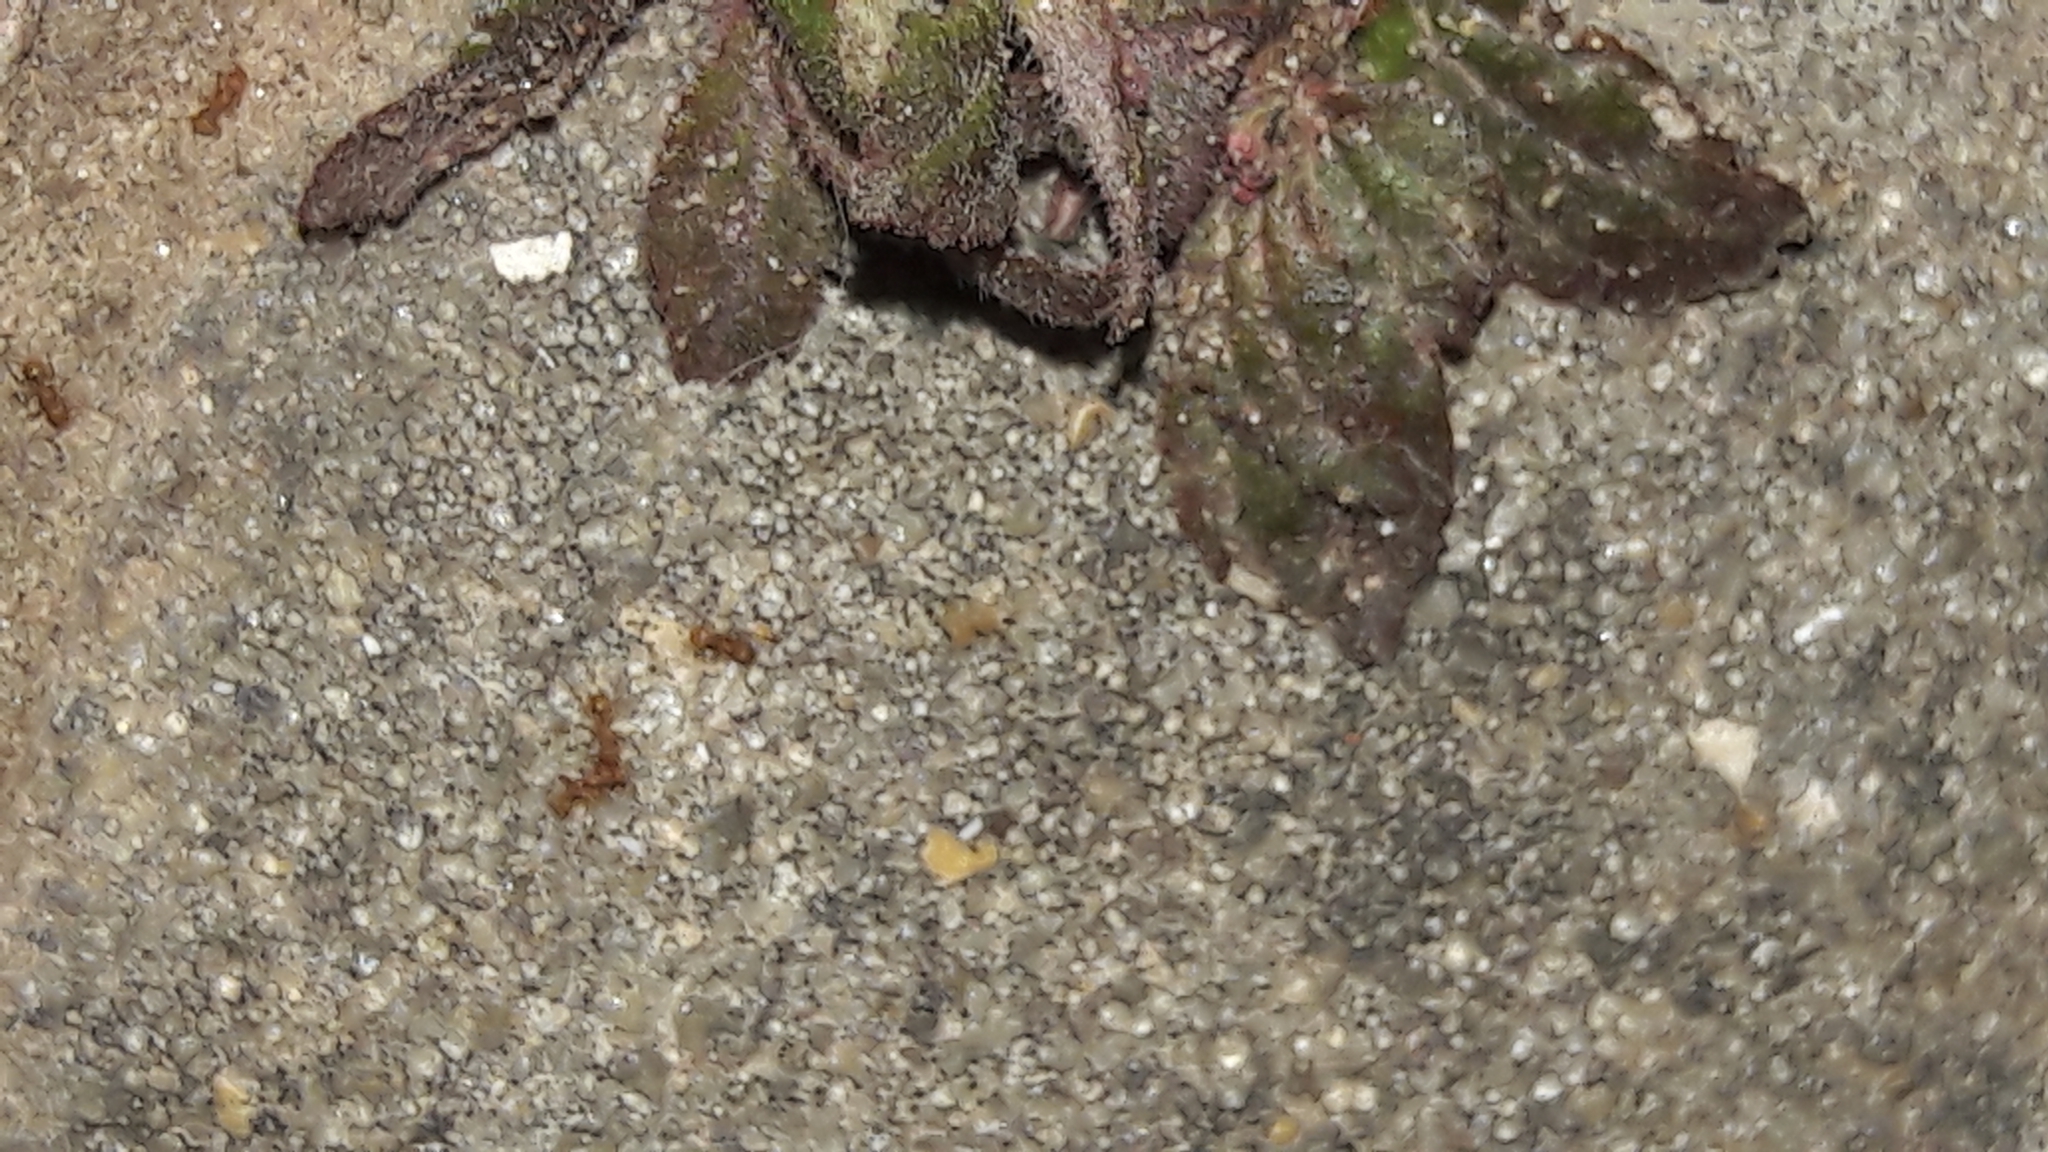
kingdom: Plantae
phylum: Tracheophyta
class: Magnoliopsida
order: Malpighiales
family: Euphorbiaceae
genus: Euphorbia
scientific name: Euphorbia hirta
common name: Pillpod sandmat
